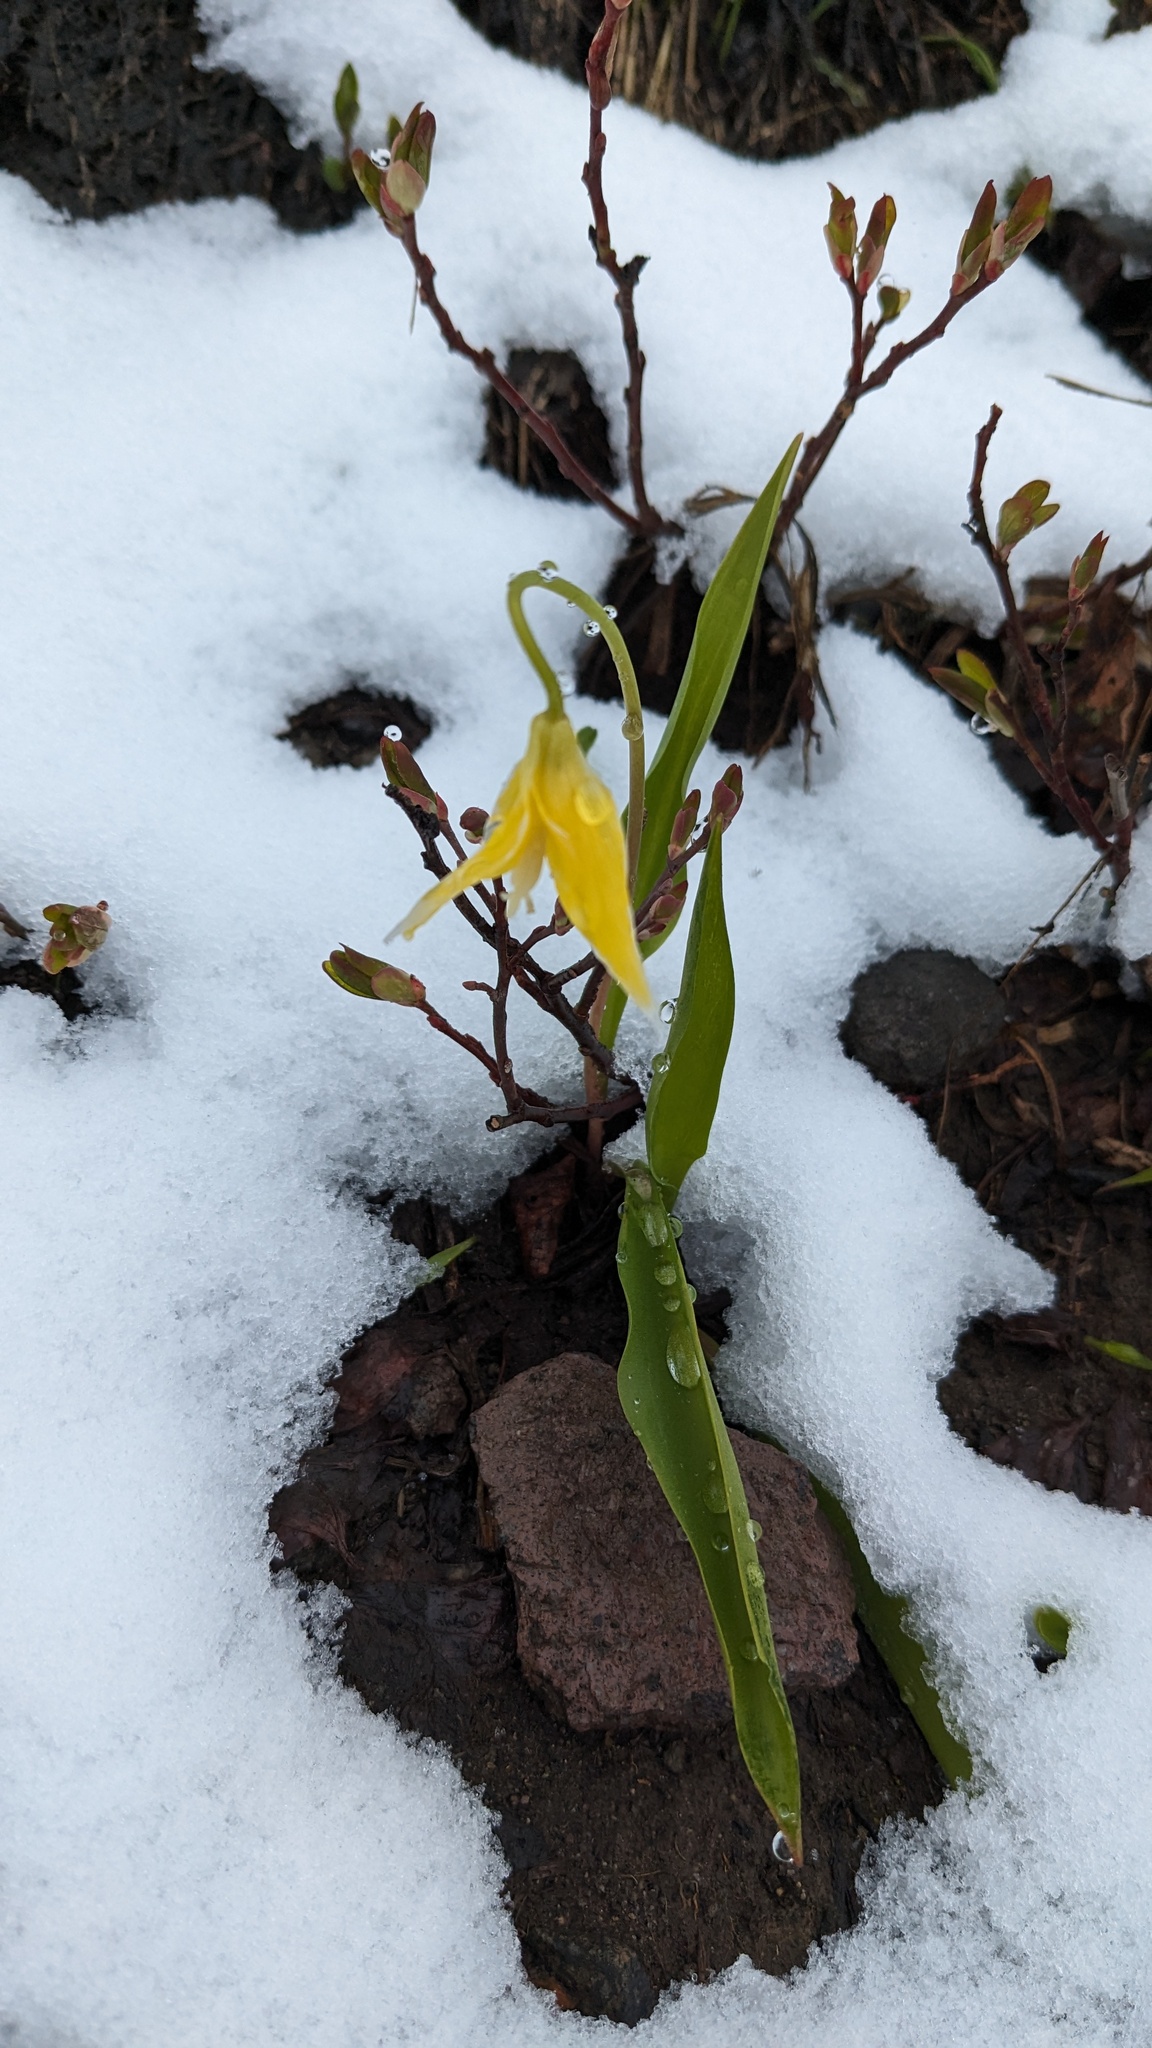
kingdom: Plantae
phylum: Tracheophyta
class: Liliopsida
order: Liliales
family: Liliaceae
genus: Erythronium
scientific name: Erythronium grandiflorum
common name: Avalanche-lily
